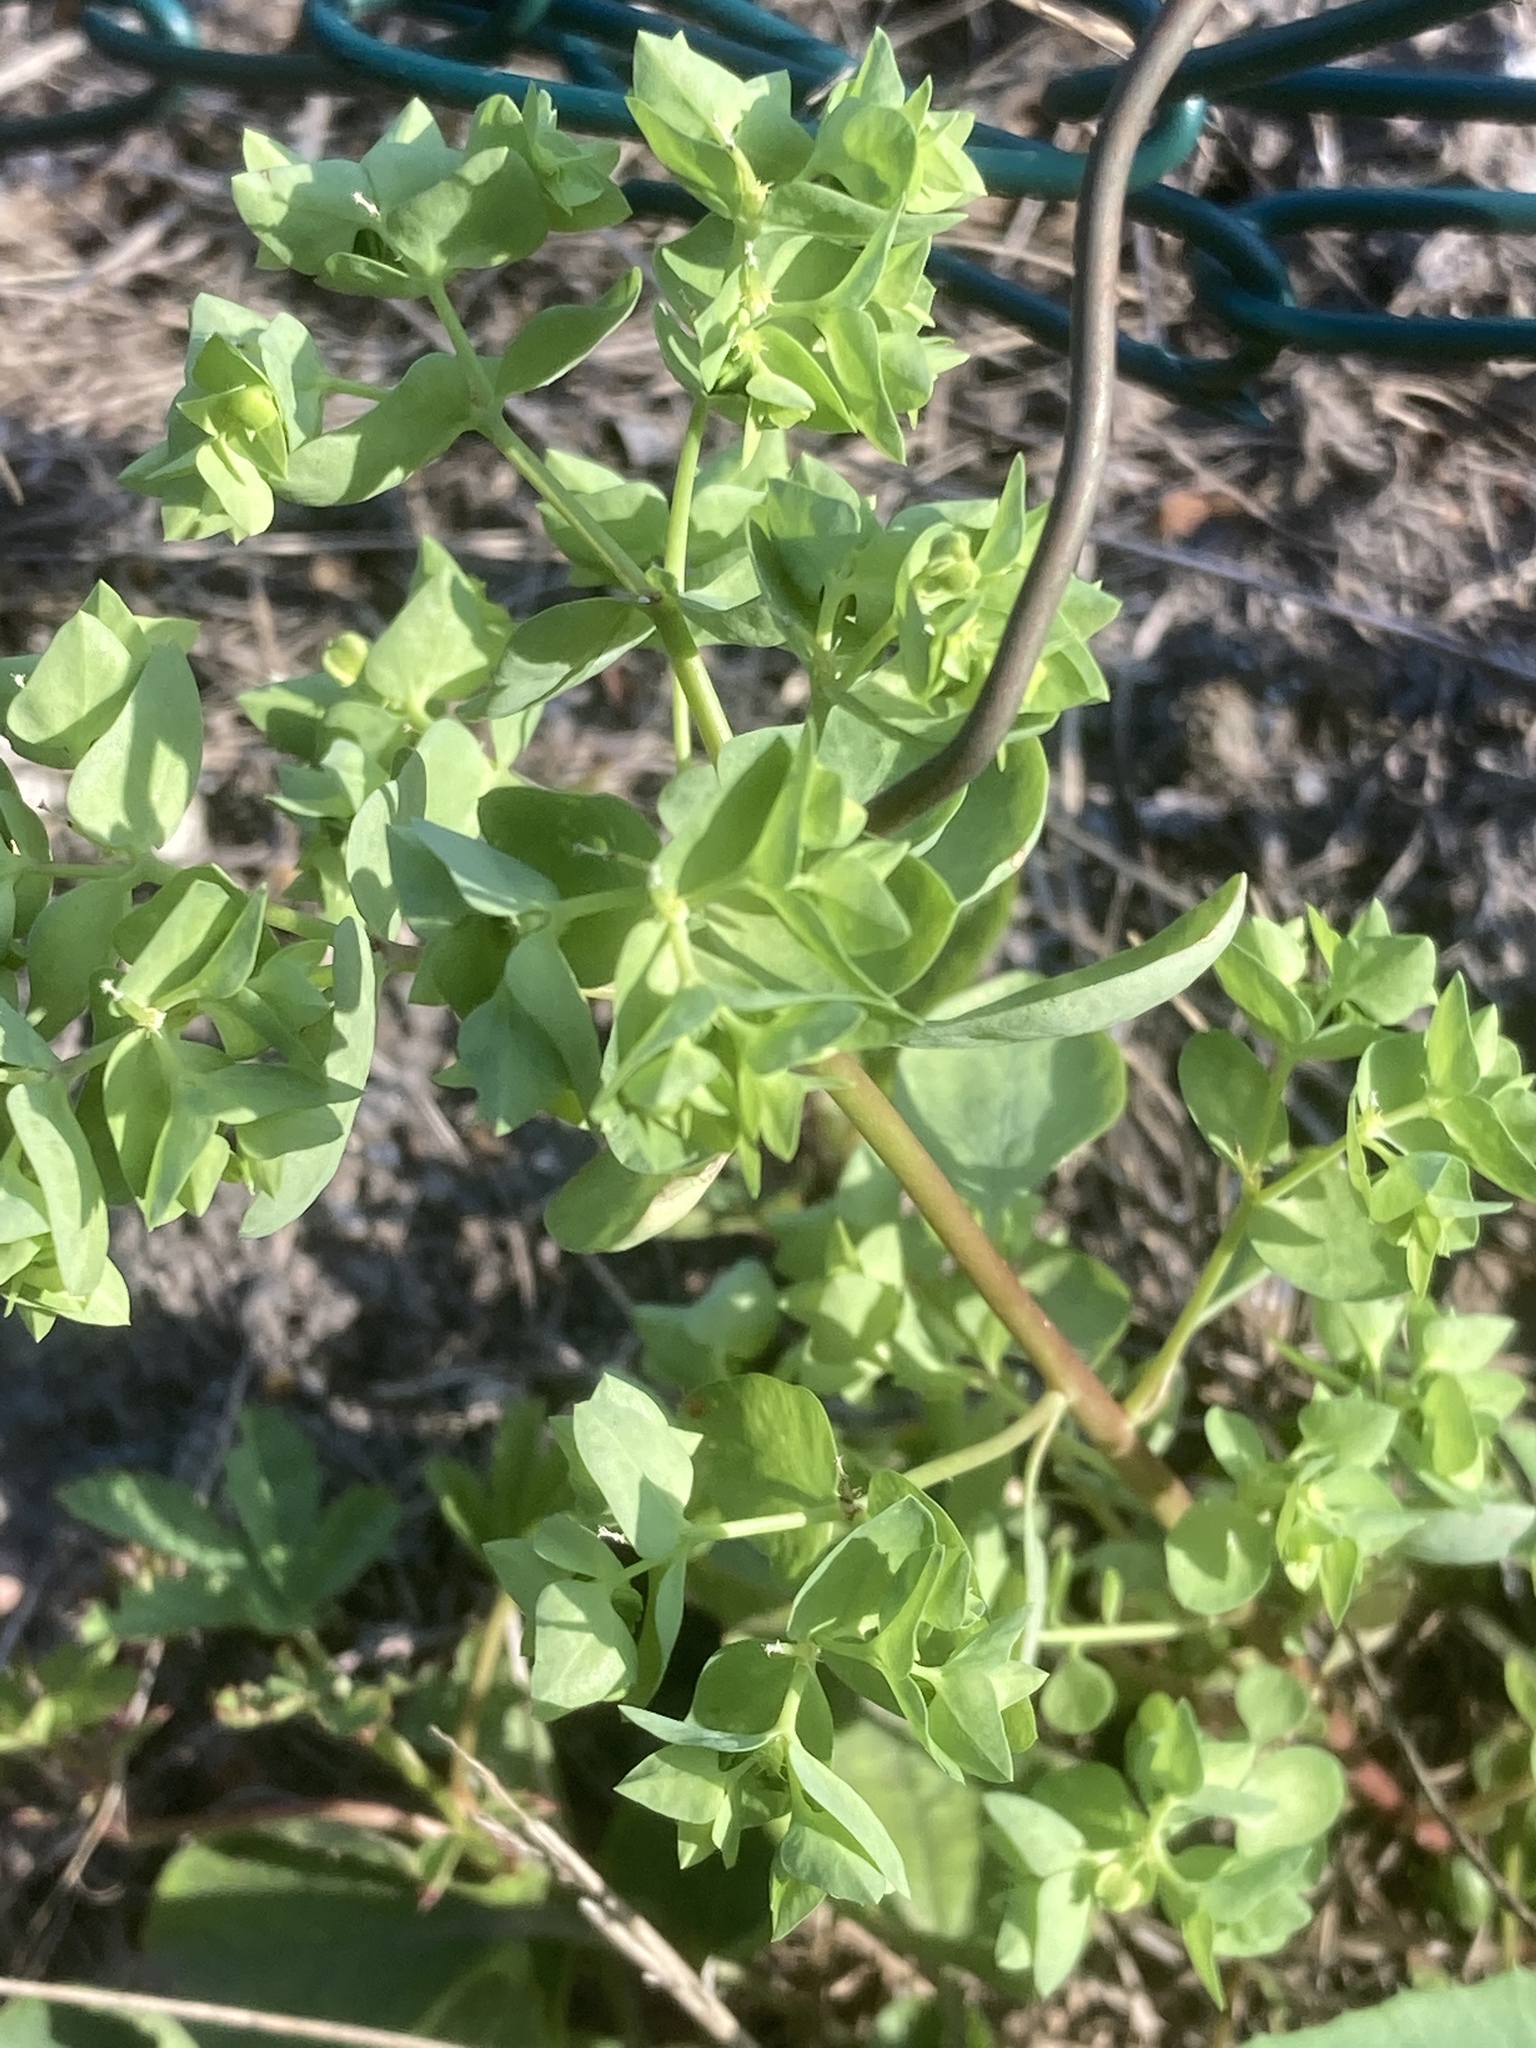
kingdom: Plantae
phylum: Tracheophyta
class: Magnoliopsida
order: Malpighiales
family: Euphorbiaceae
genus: Euphorbia
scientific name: Euphorbia peplus
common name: Petty spurge
